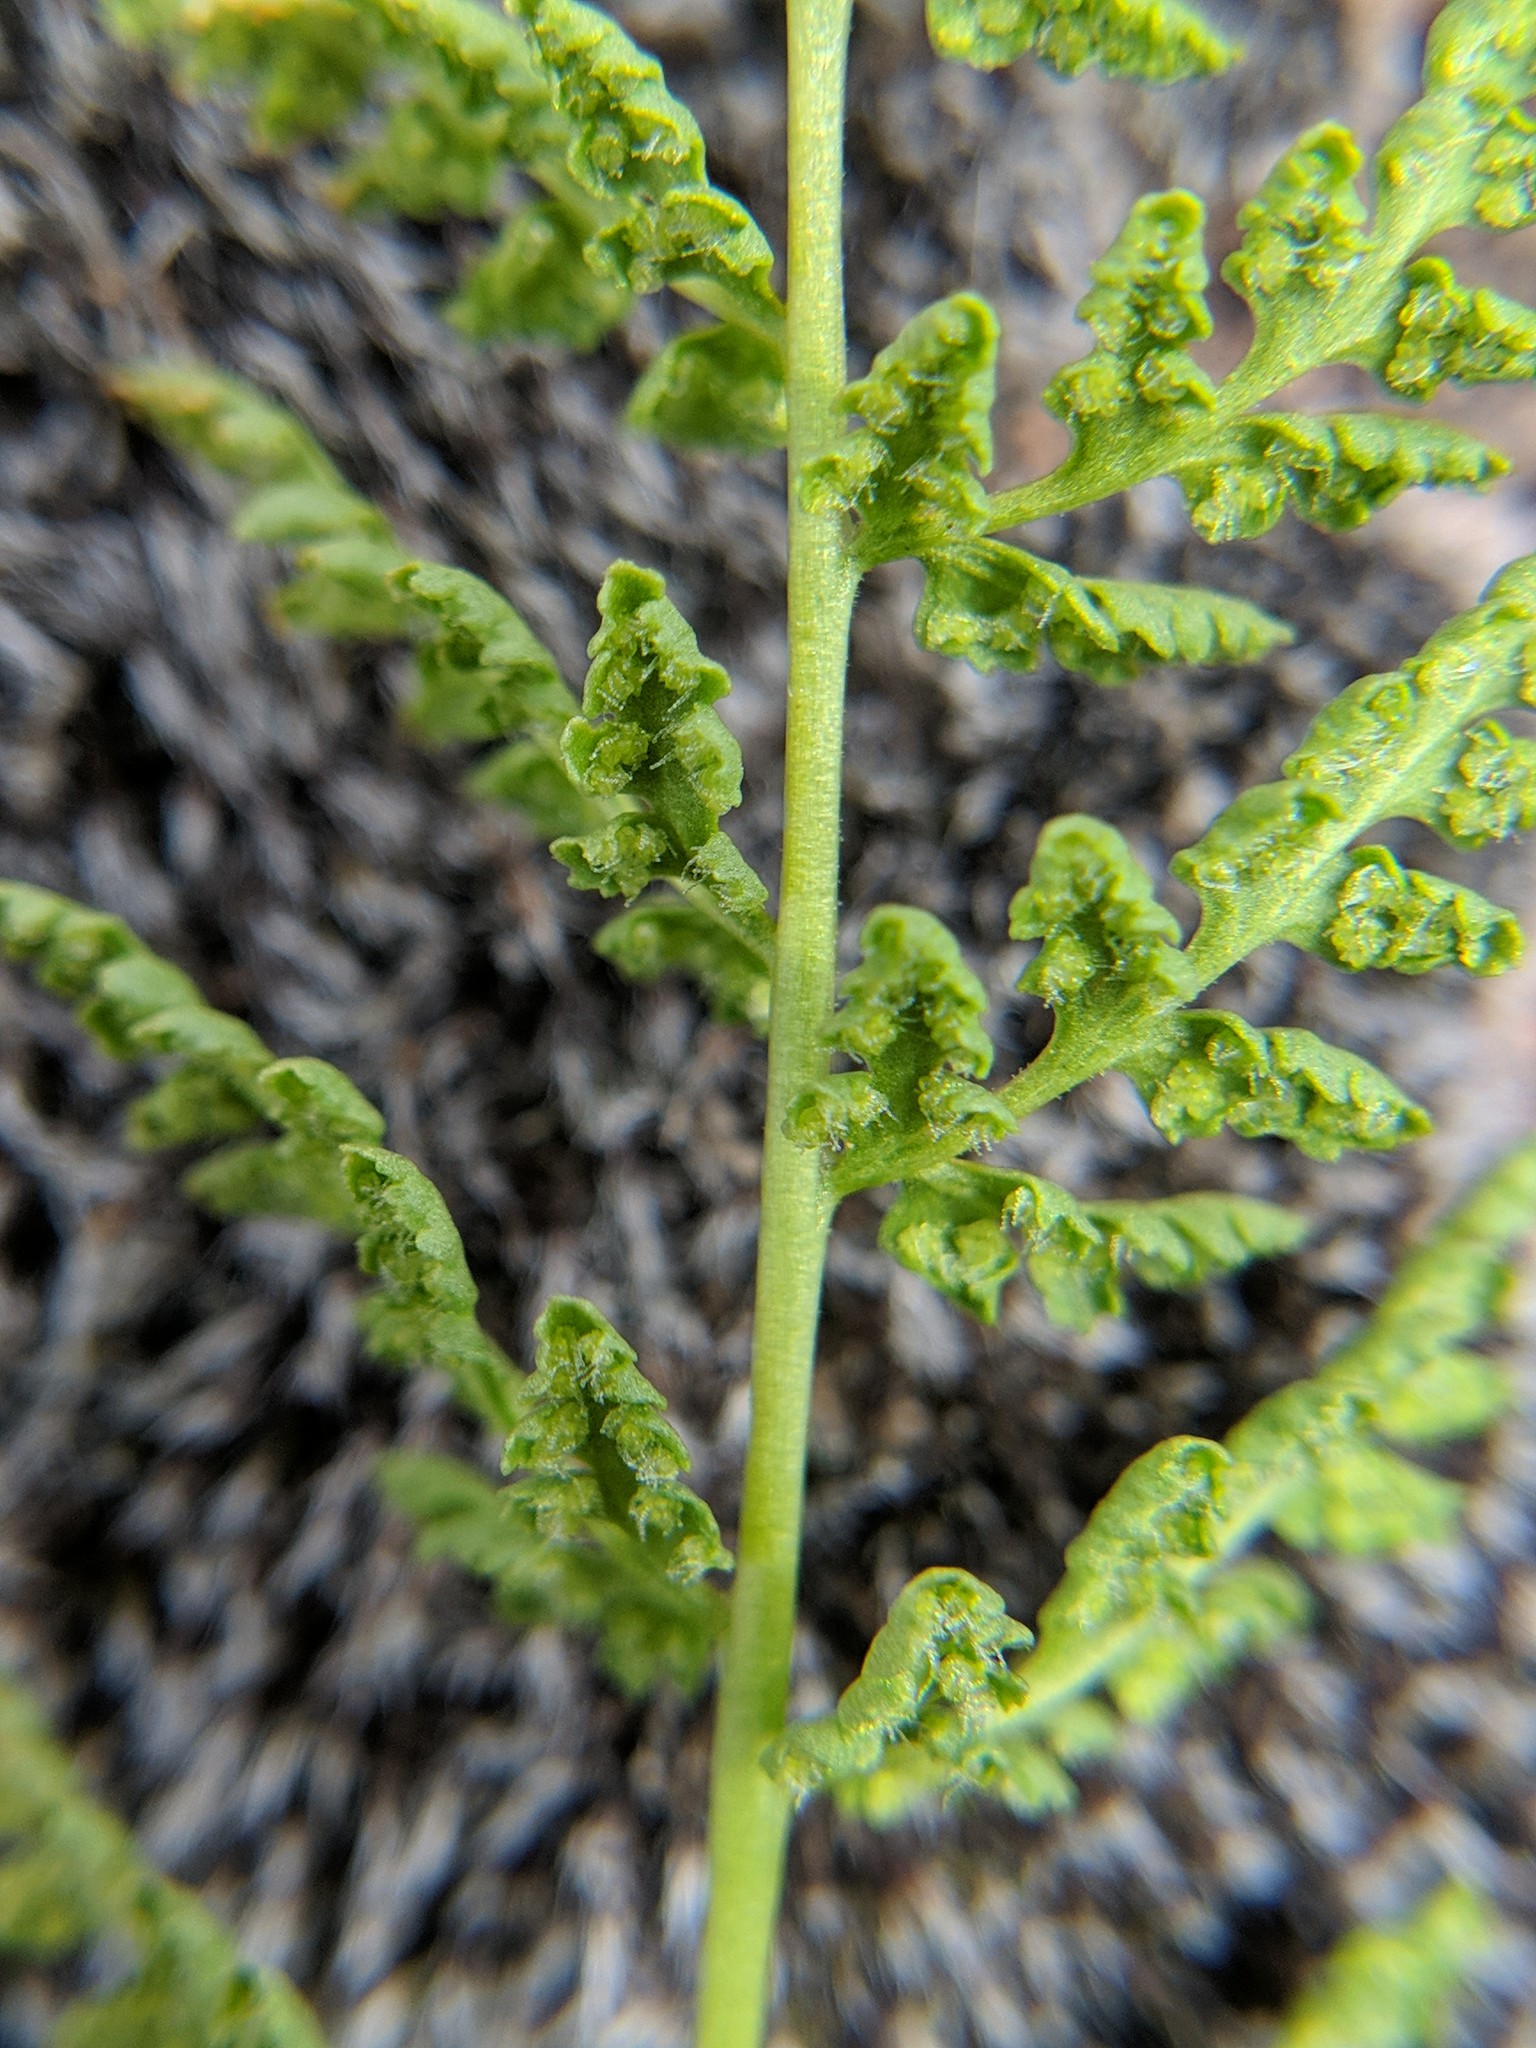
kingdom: Plantae
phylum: Tracheophyta
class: Polypodiopsida
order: Polypodiales
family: Woodsiaceae
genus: Physematium
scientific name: Physematium oreganum
